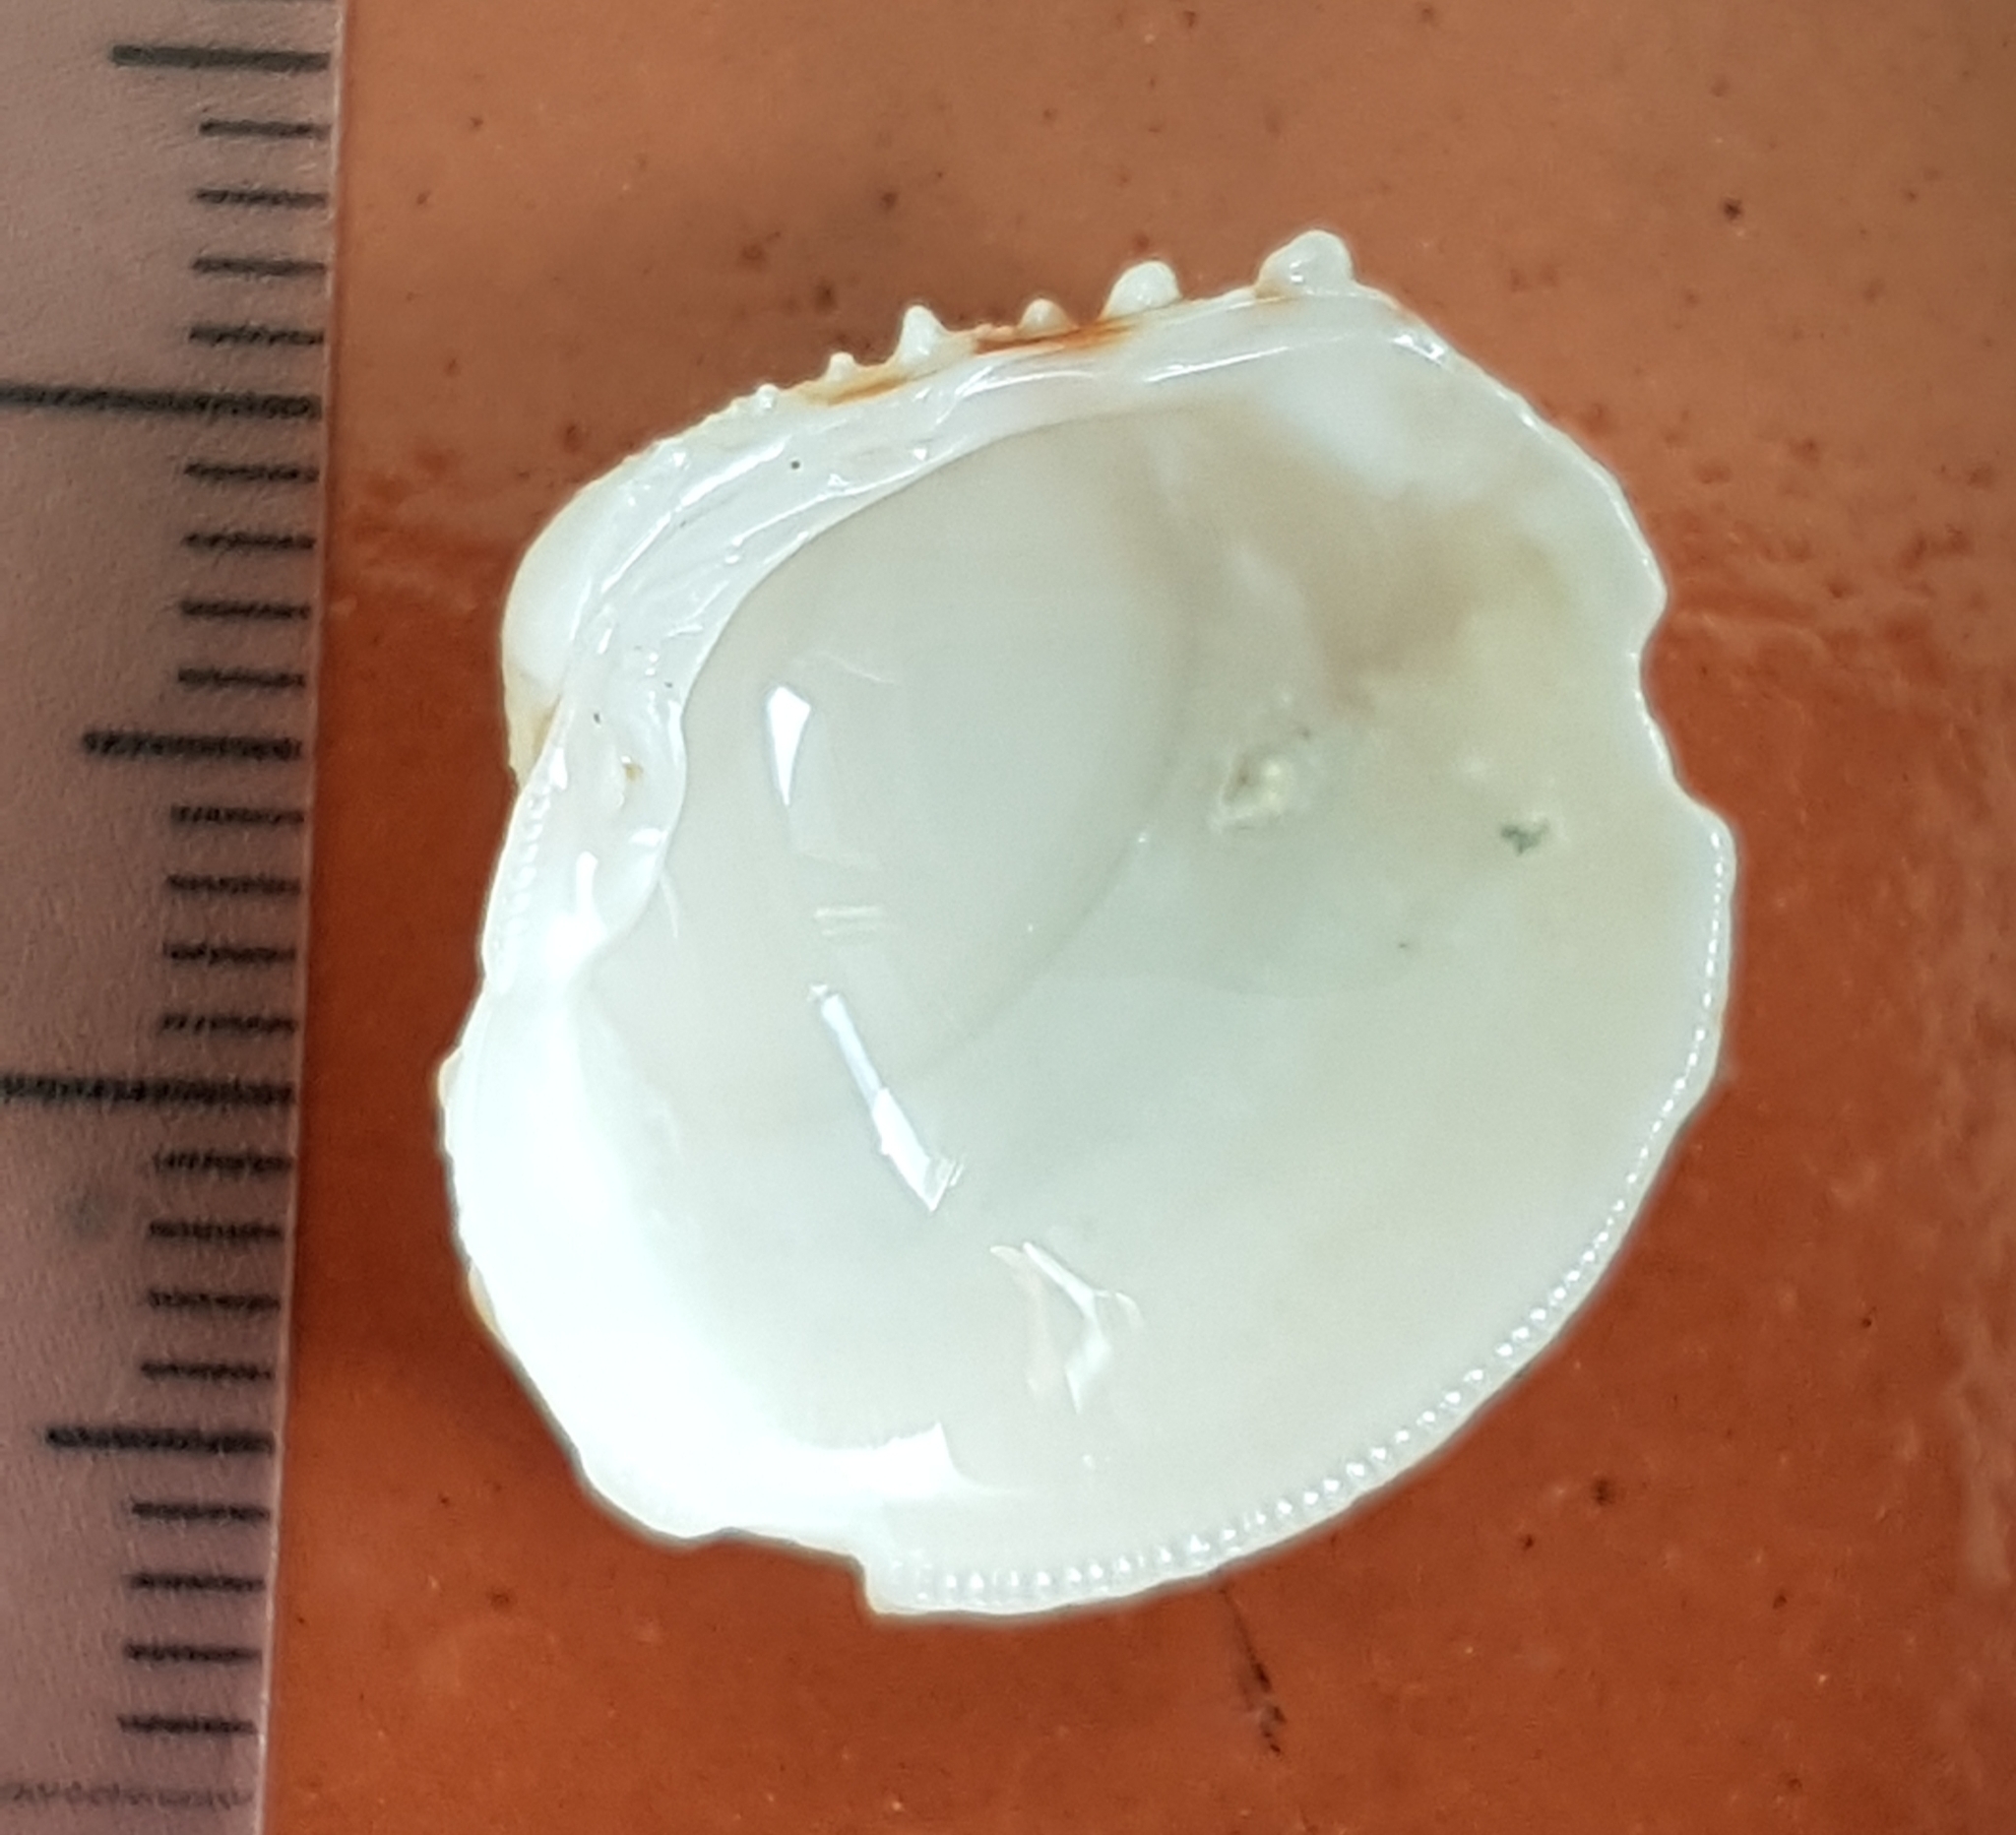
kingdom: Animalia
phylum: Mollusca
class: Bivalvia
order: Venerida
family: Veneridae
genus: Venus
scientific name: Venus verrucosa
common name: Warty venus
